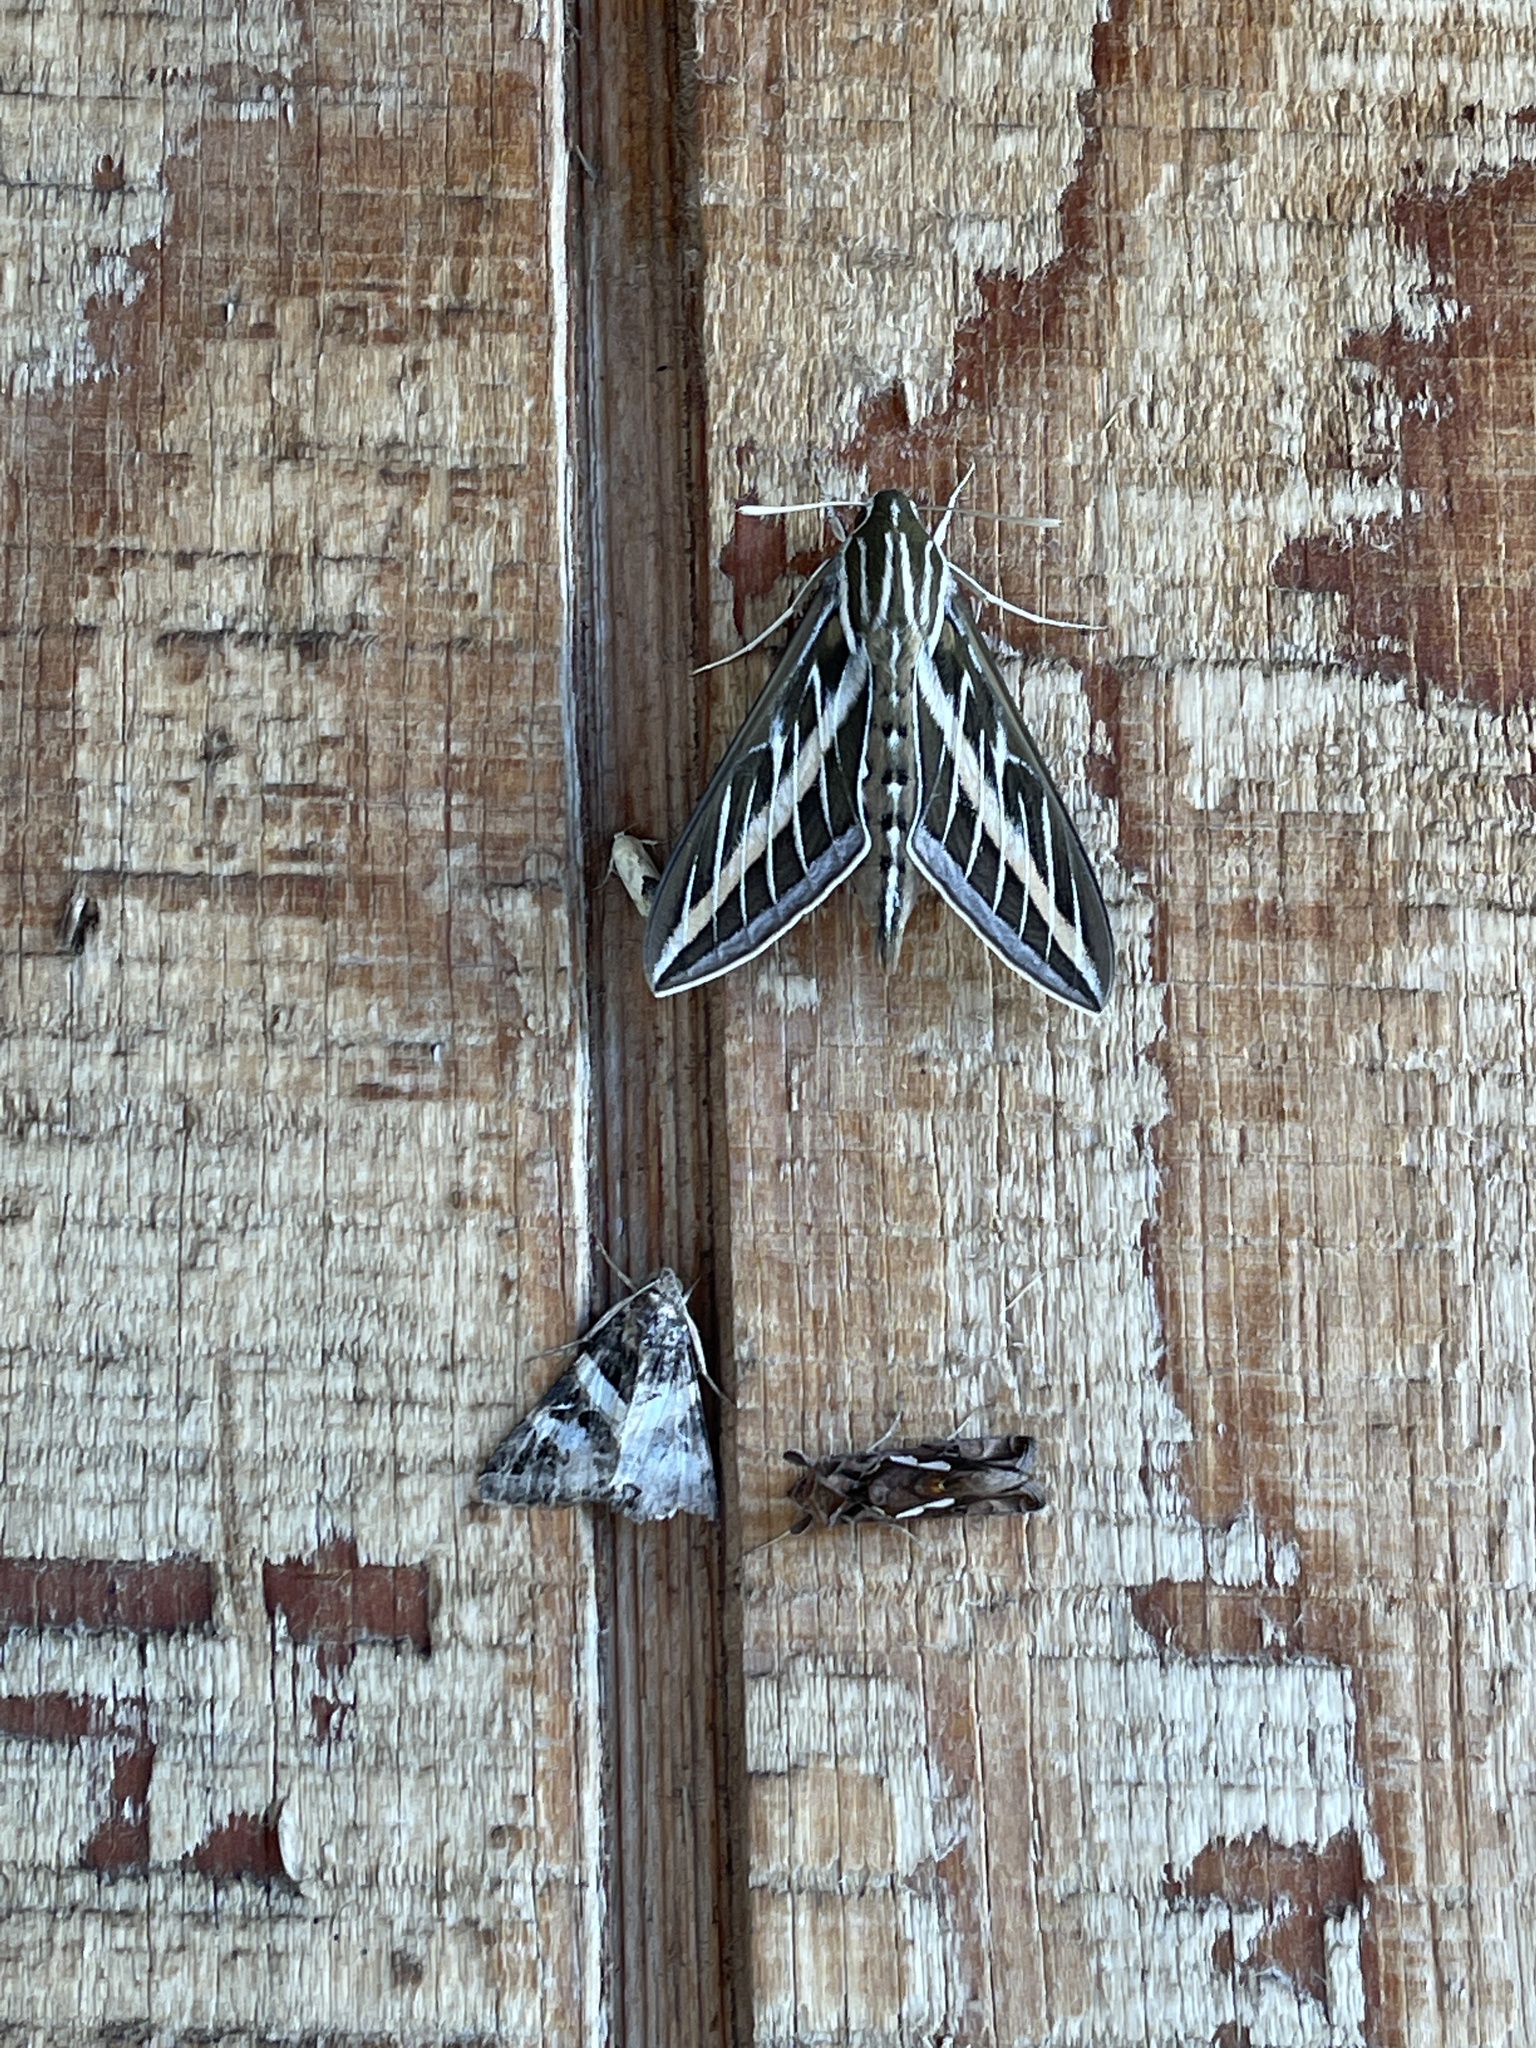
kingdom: Animalia
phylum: Arthropoda
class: Insecta
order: Lepidoptera
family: Sphingidae
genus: Hyles
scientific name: Hyles lineata
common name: White-lined sphinx
